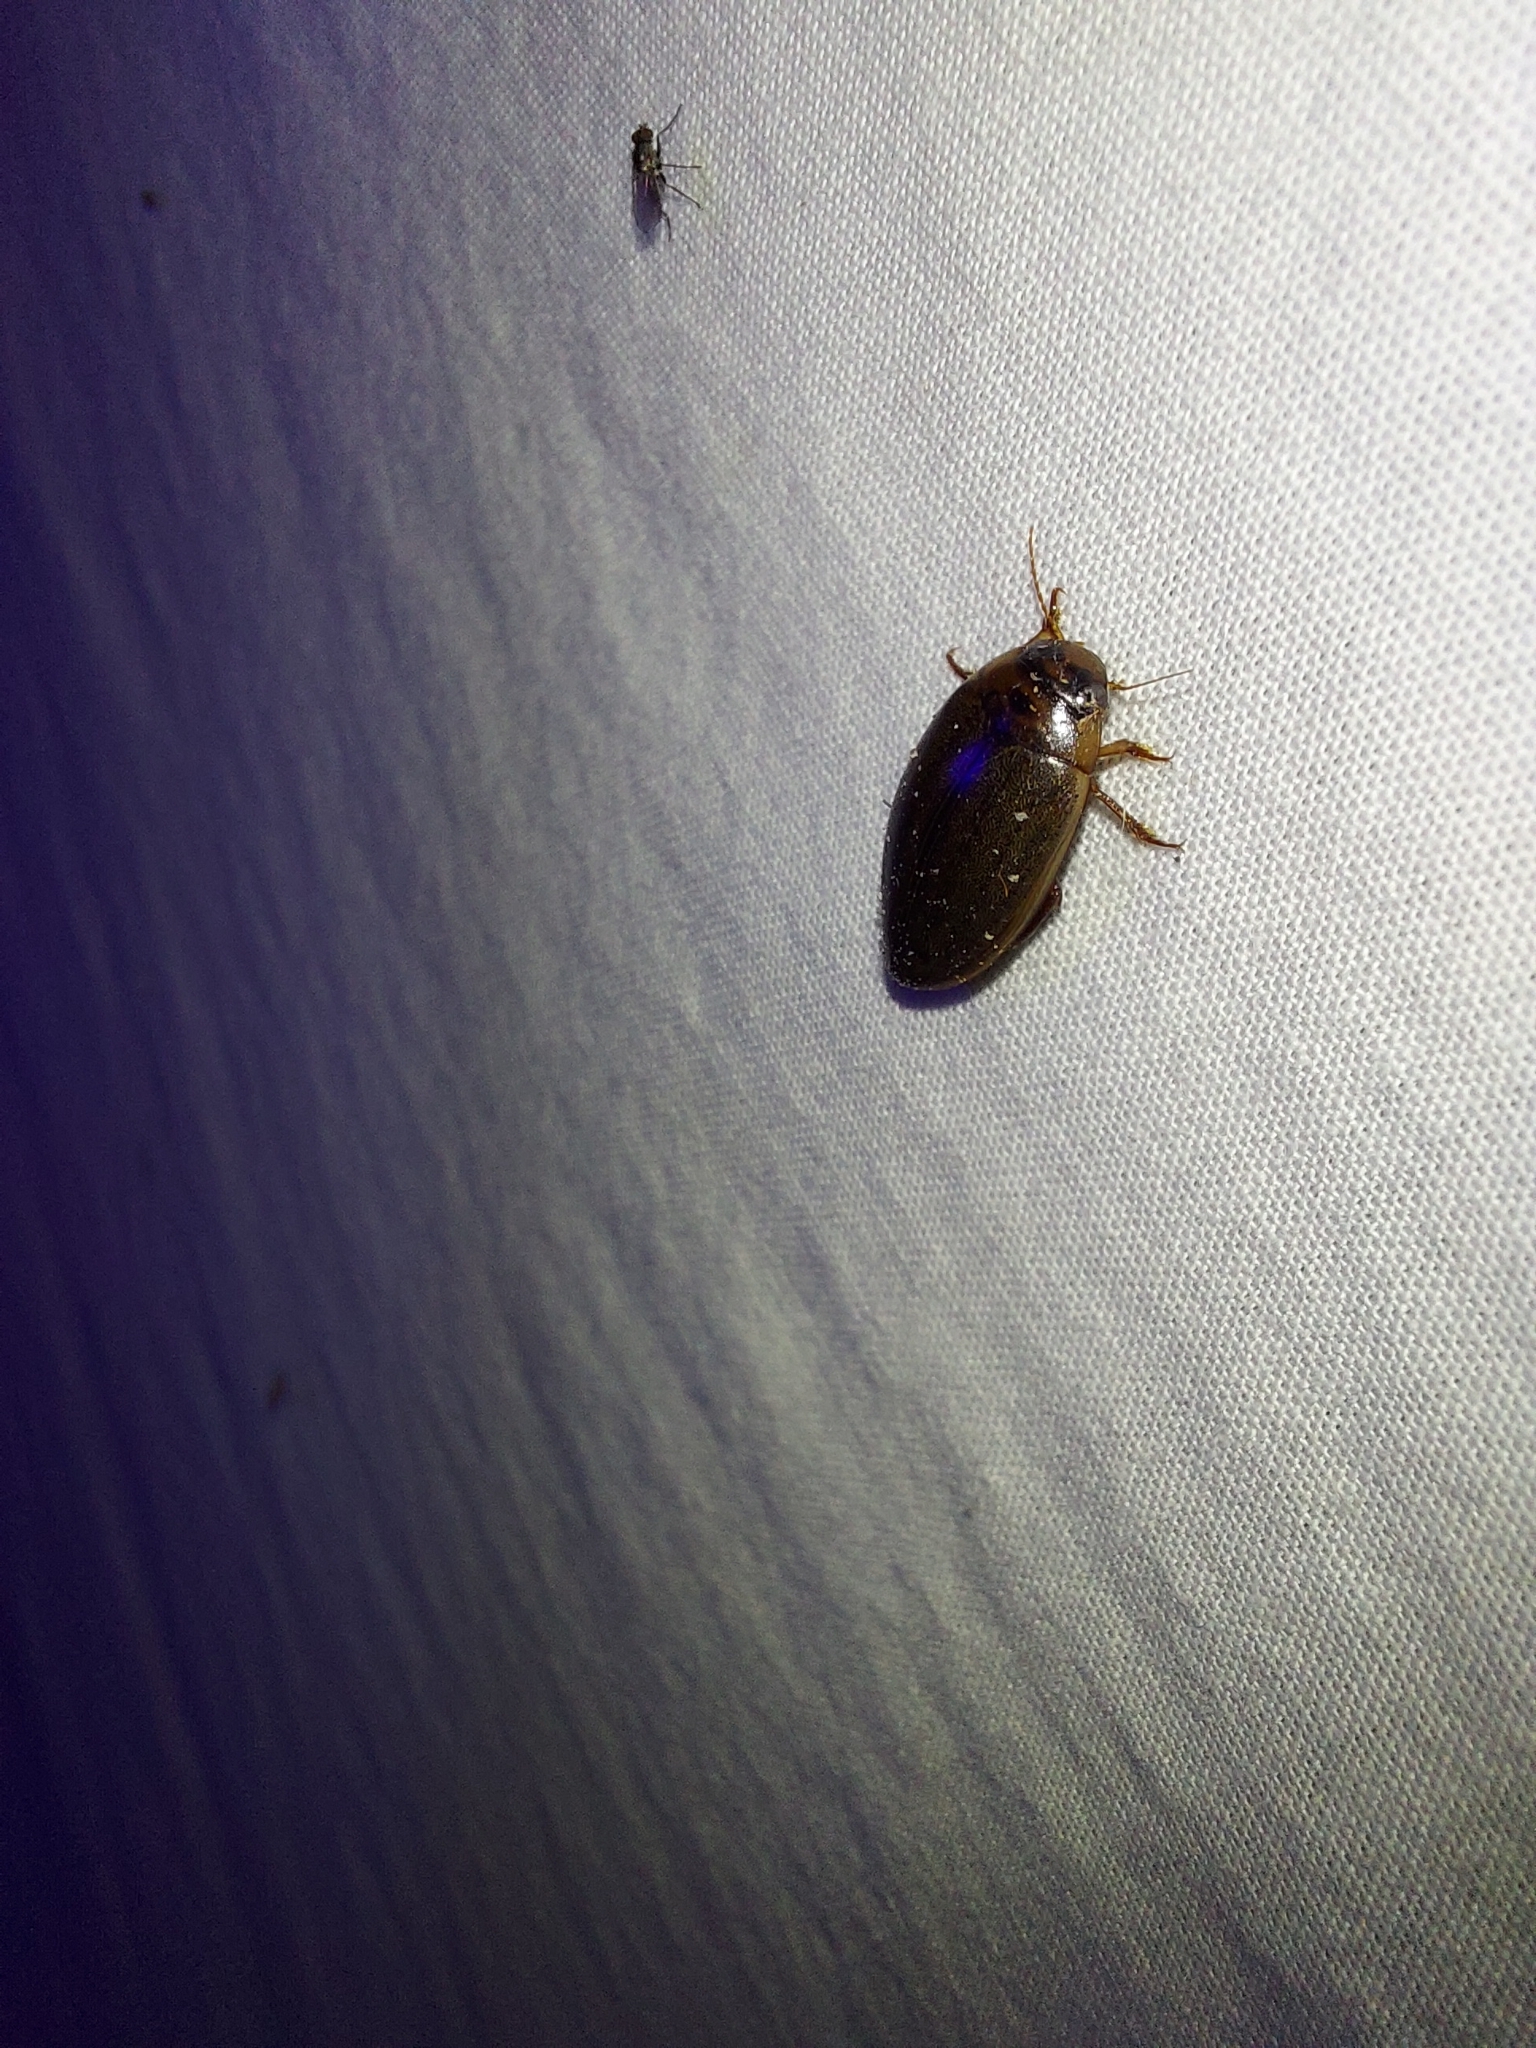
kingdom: Animalia
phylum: Arthropoda
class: Insecta
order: Coleoptera
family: Dytiscidae
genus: Rhantus
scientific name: Rhantus suturalis
